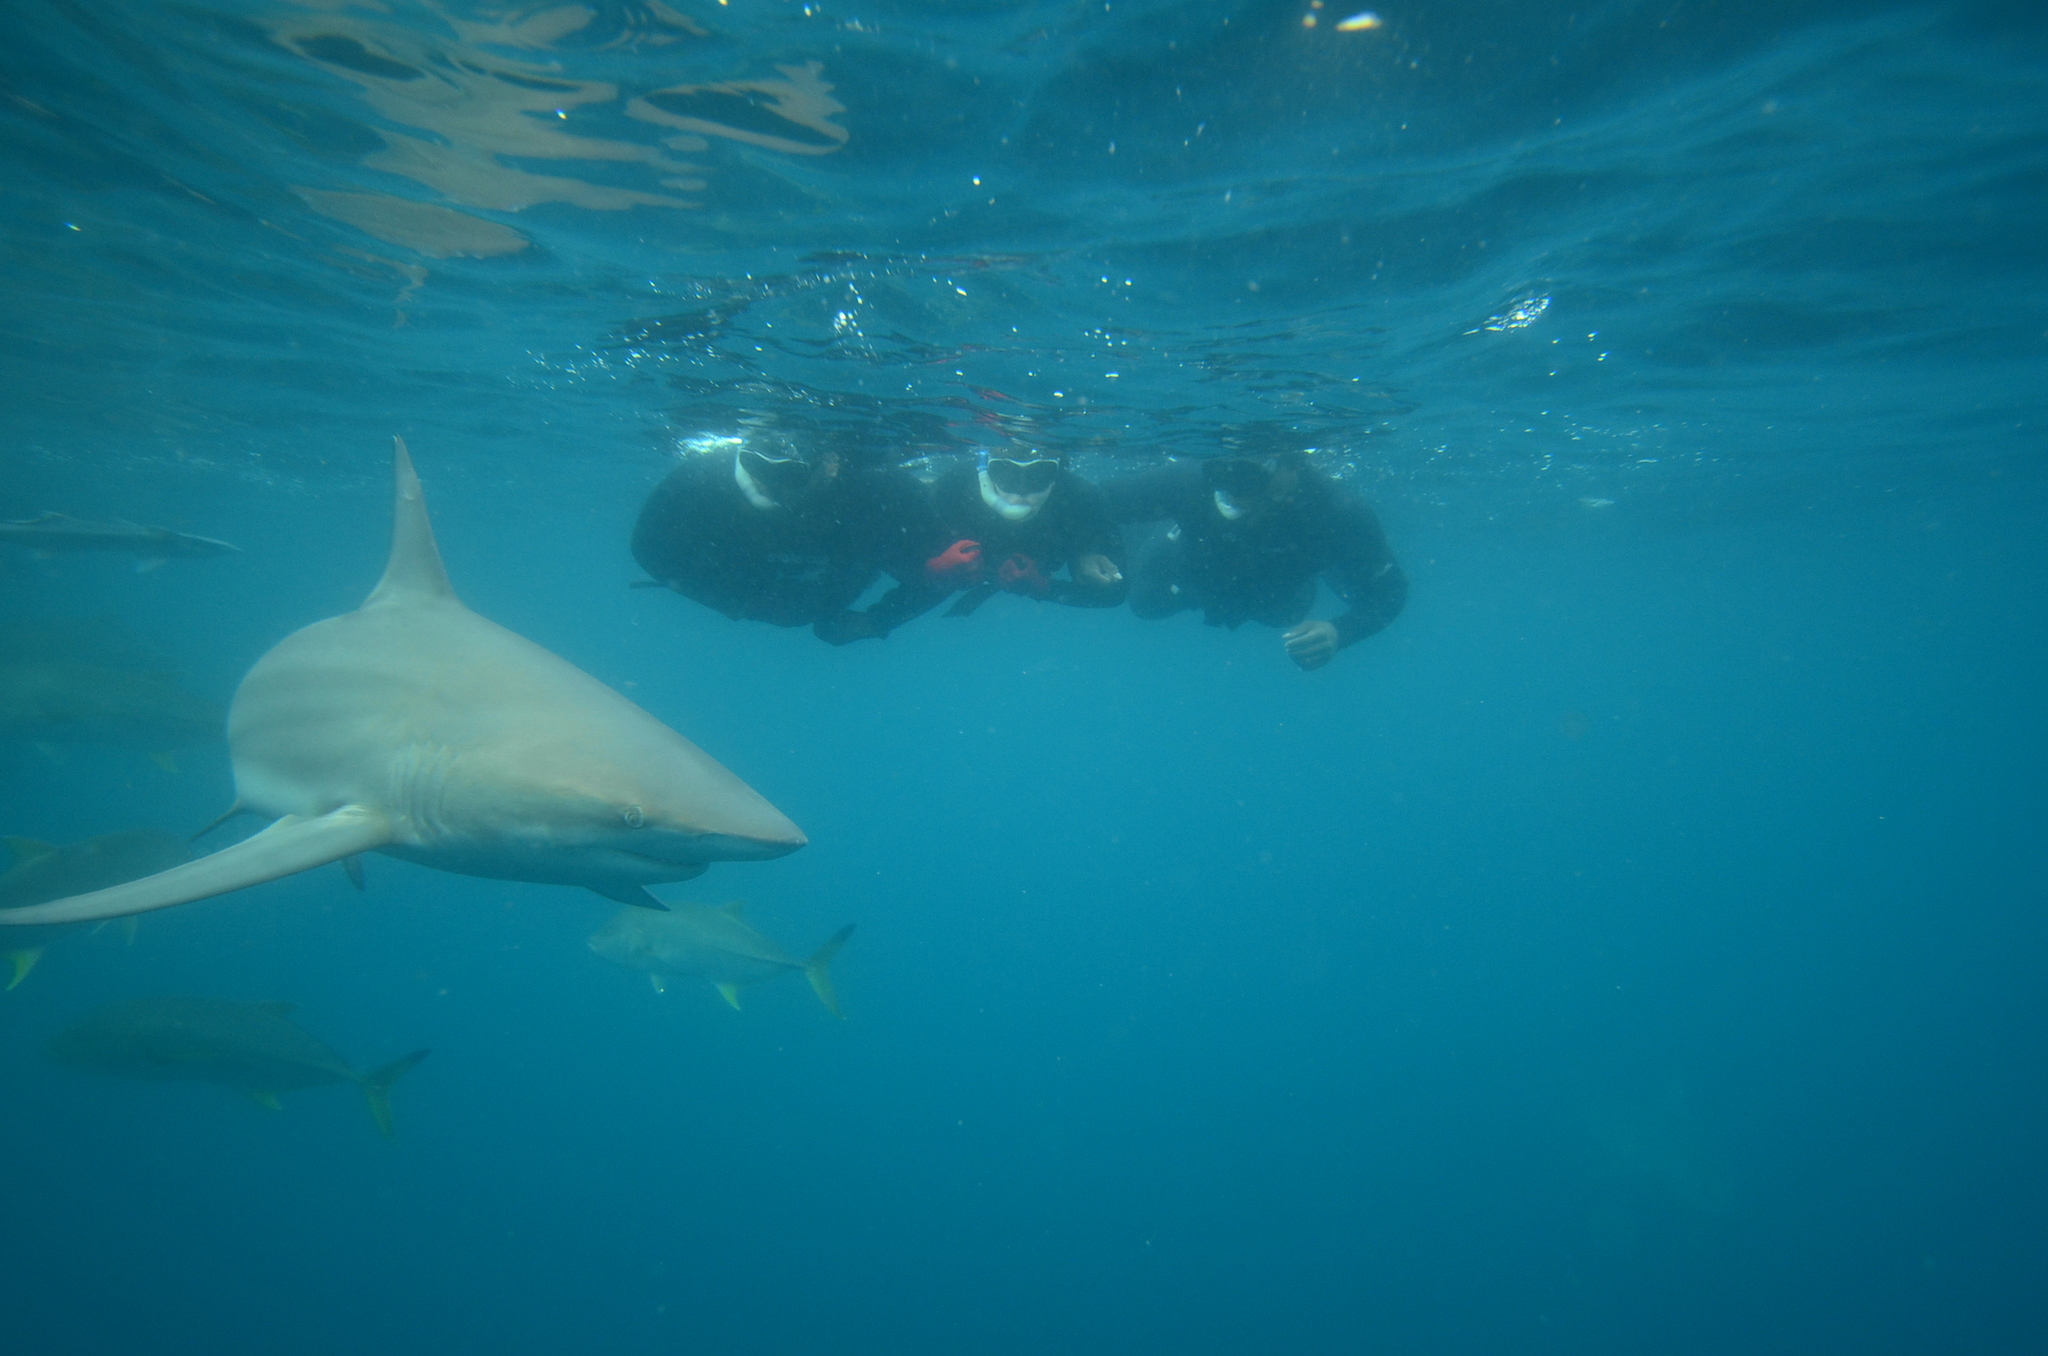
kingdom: Animalia
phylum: Chordata
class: Elasmobranchii
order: Carcharhiniformes
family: Carcharhinidae
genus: Carcharhinus
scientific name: Carcharhinus limbatus
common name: Blacktip shark
